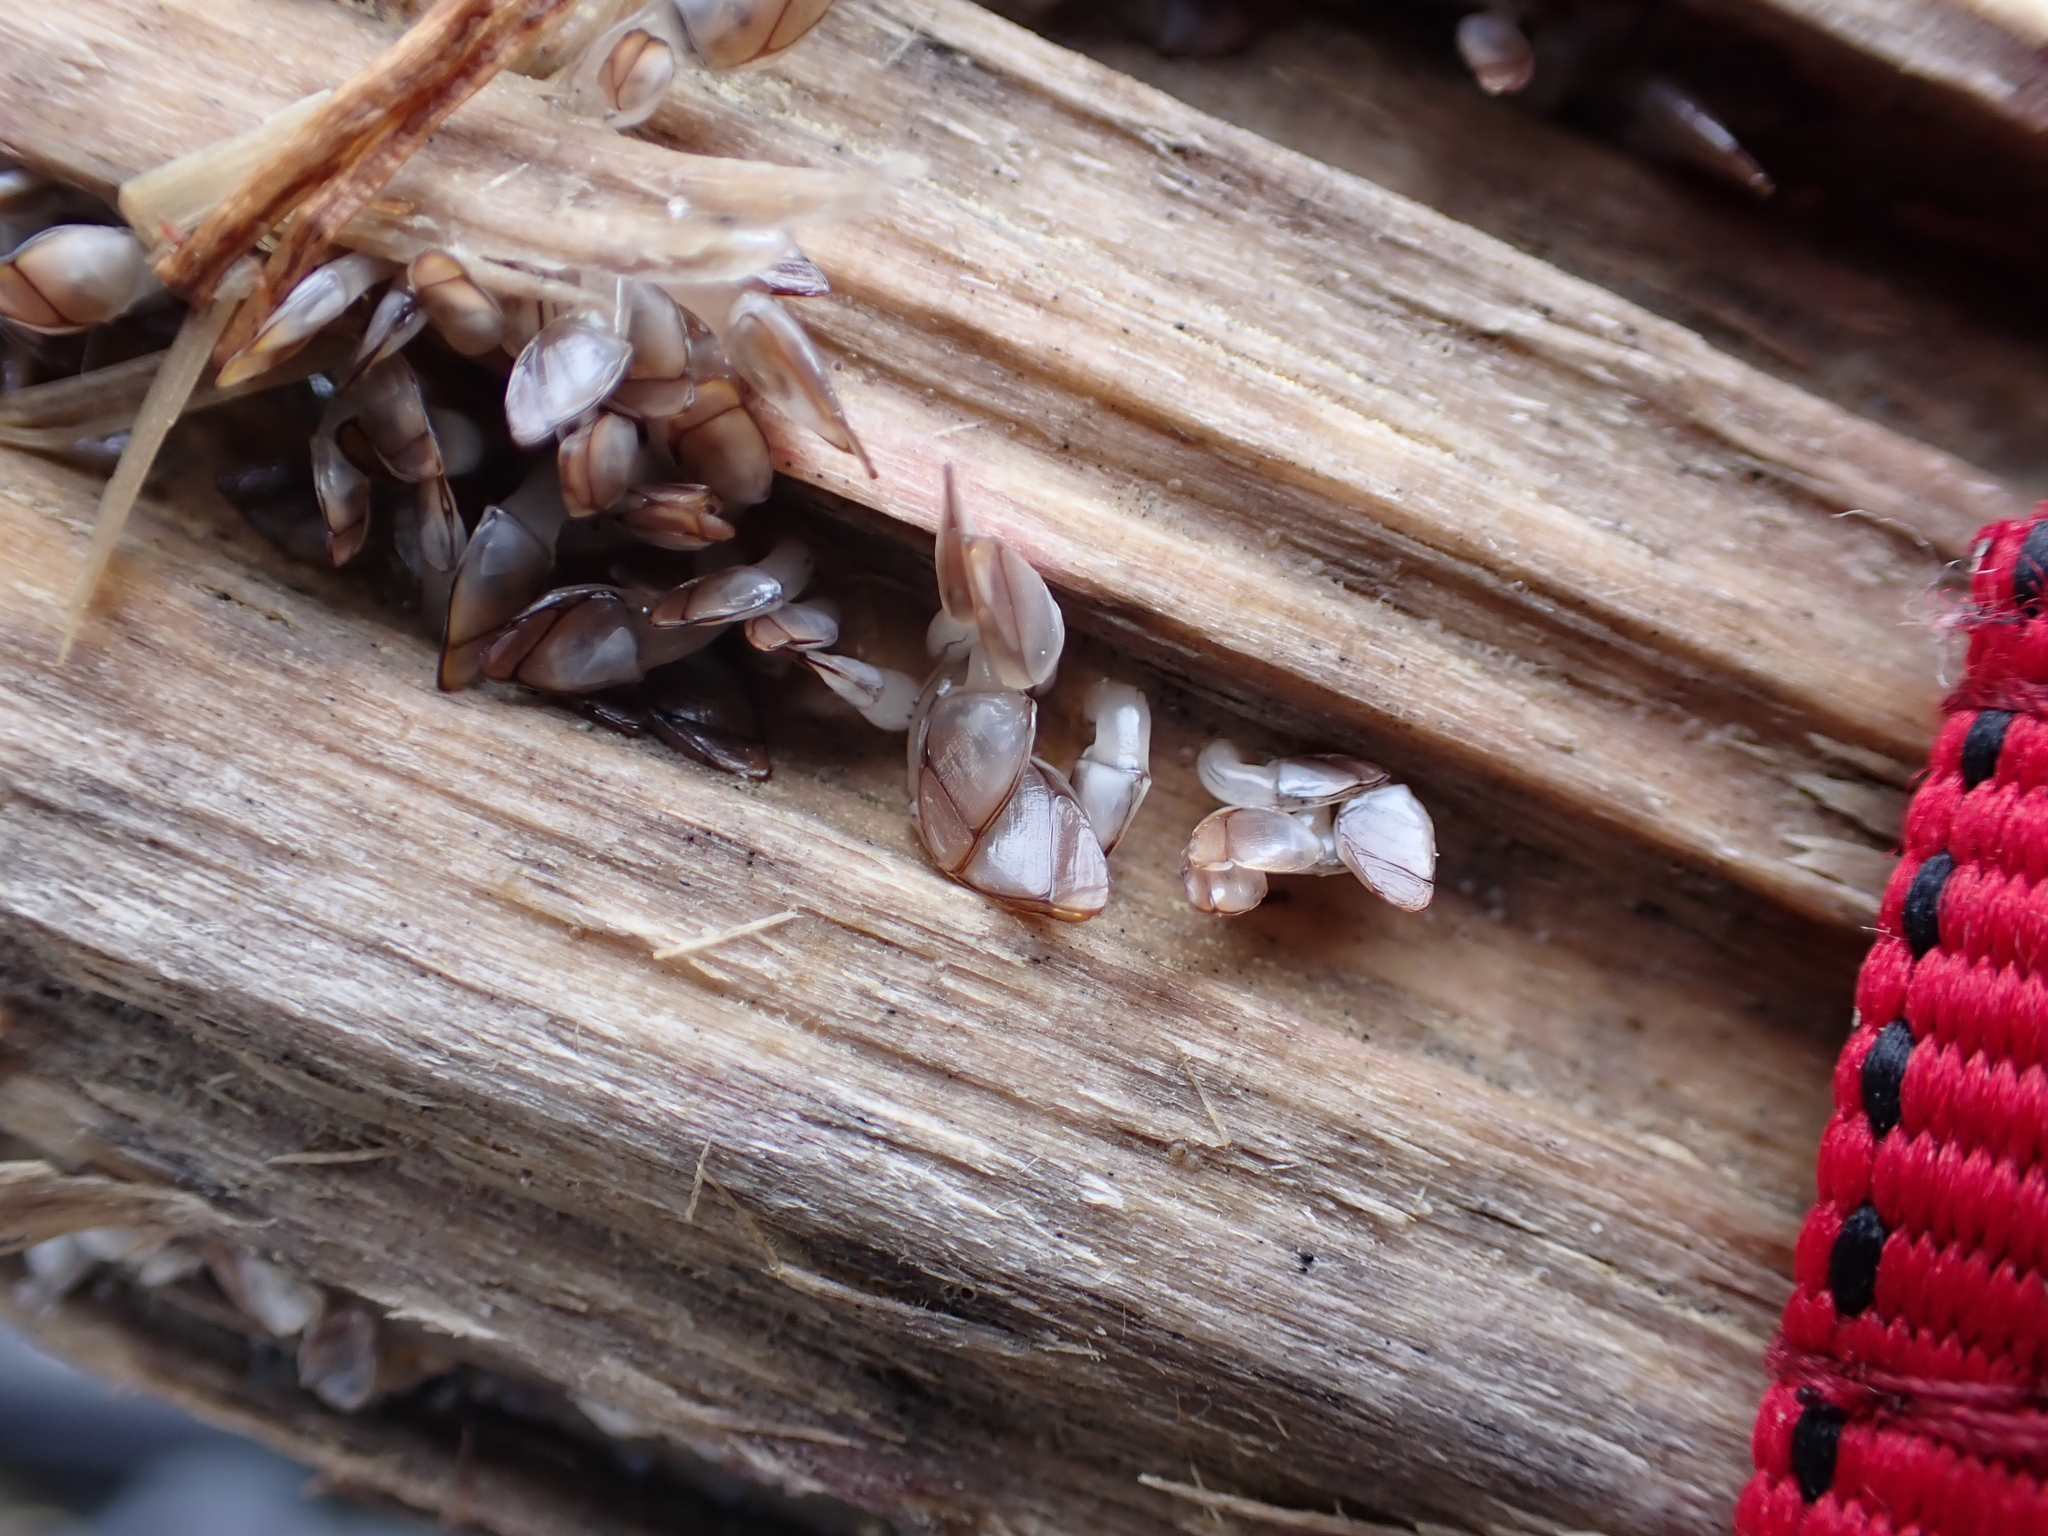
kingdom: Animalia
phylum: Arthropoda
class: Maxillopoda
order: Pedunculata
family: Lepadidae
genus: Lepas
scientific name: Lepas anatifera
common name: Common goose barnacle
